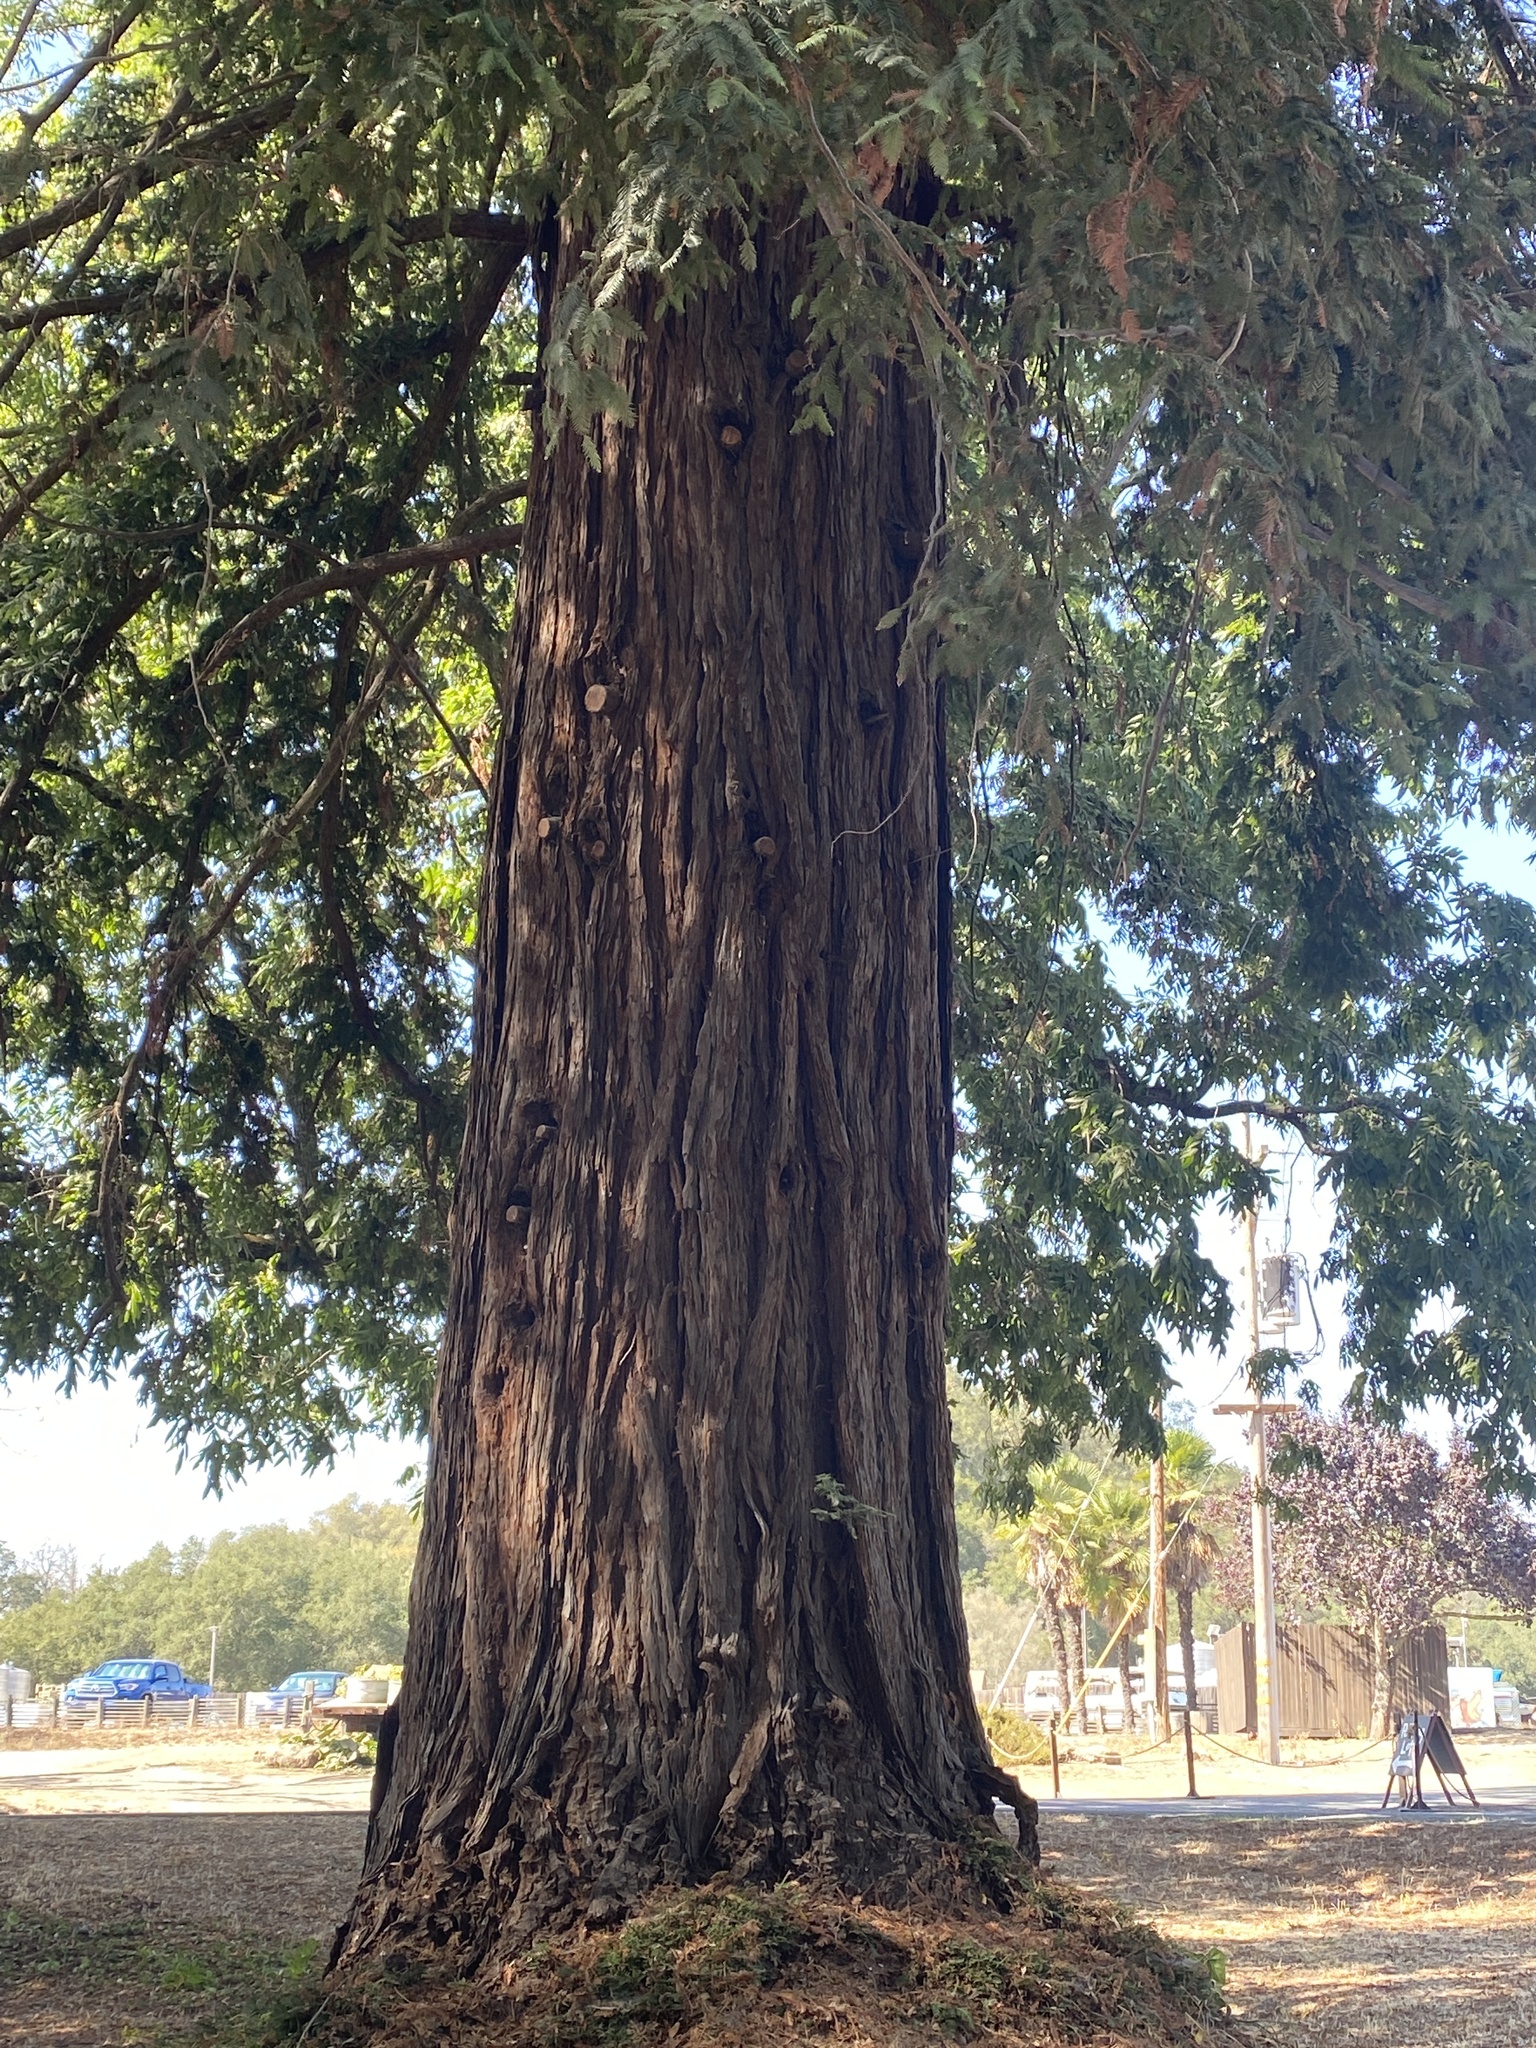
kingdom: Plantae
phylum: Tracheophyta
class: Pinopsida
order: Pinales
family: Cupressaceae
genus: Sequoia
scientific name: Sequoia sempervirens
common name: Coast redwood
